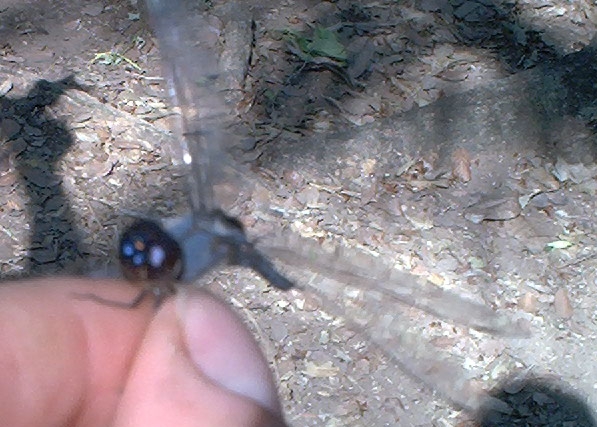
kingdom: Animalia
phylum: Arthropoda
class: Insecta
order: Odonata
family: Libellulidae
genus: Tramea
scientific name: Tramea binotata
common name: Sooty saddlebags
